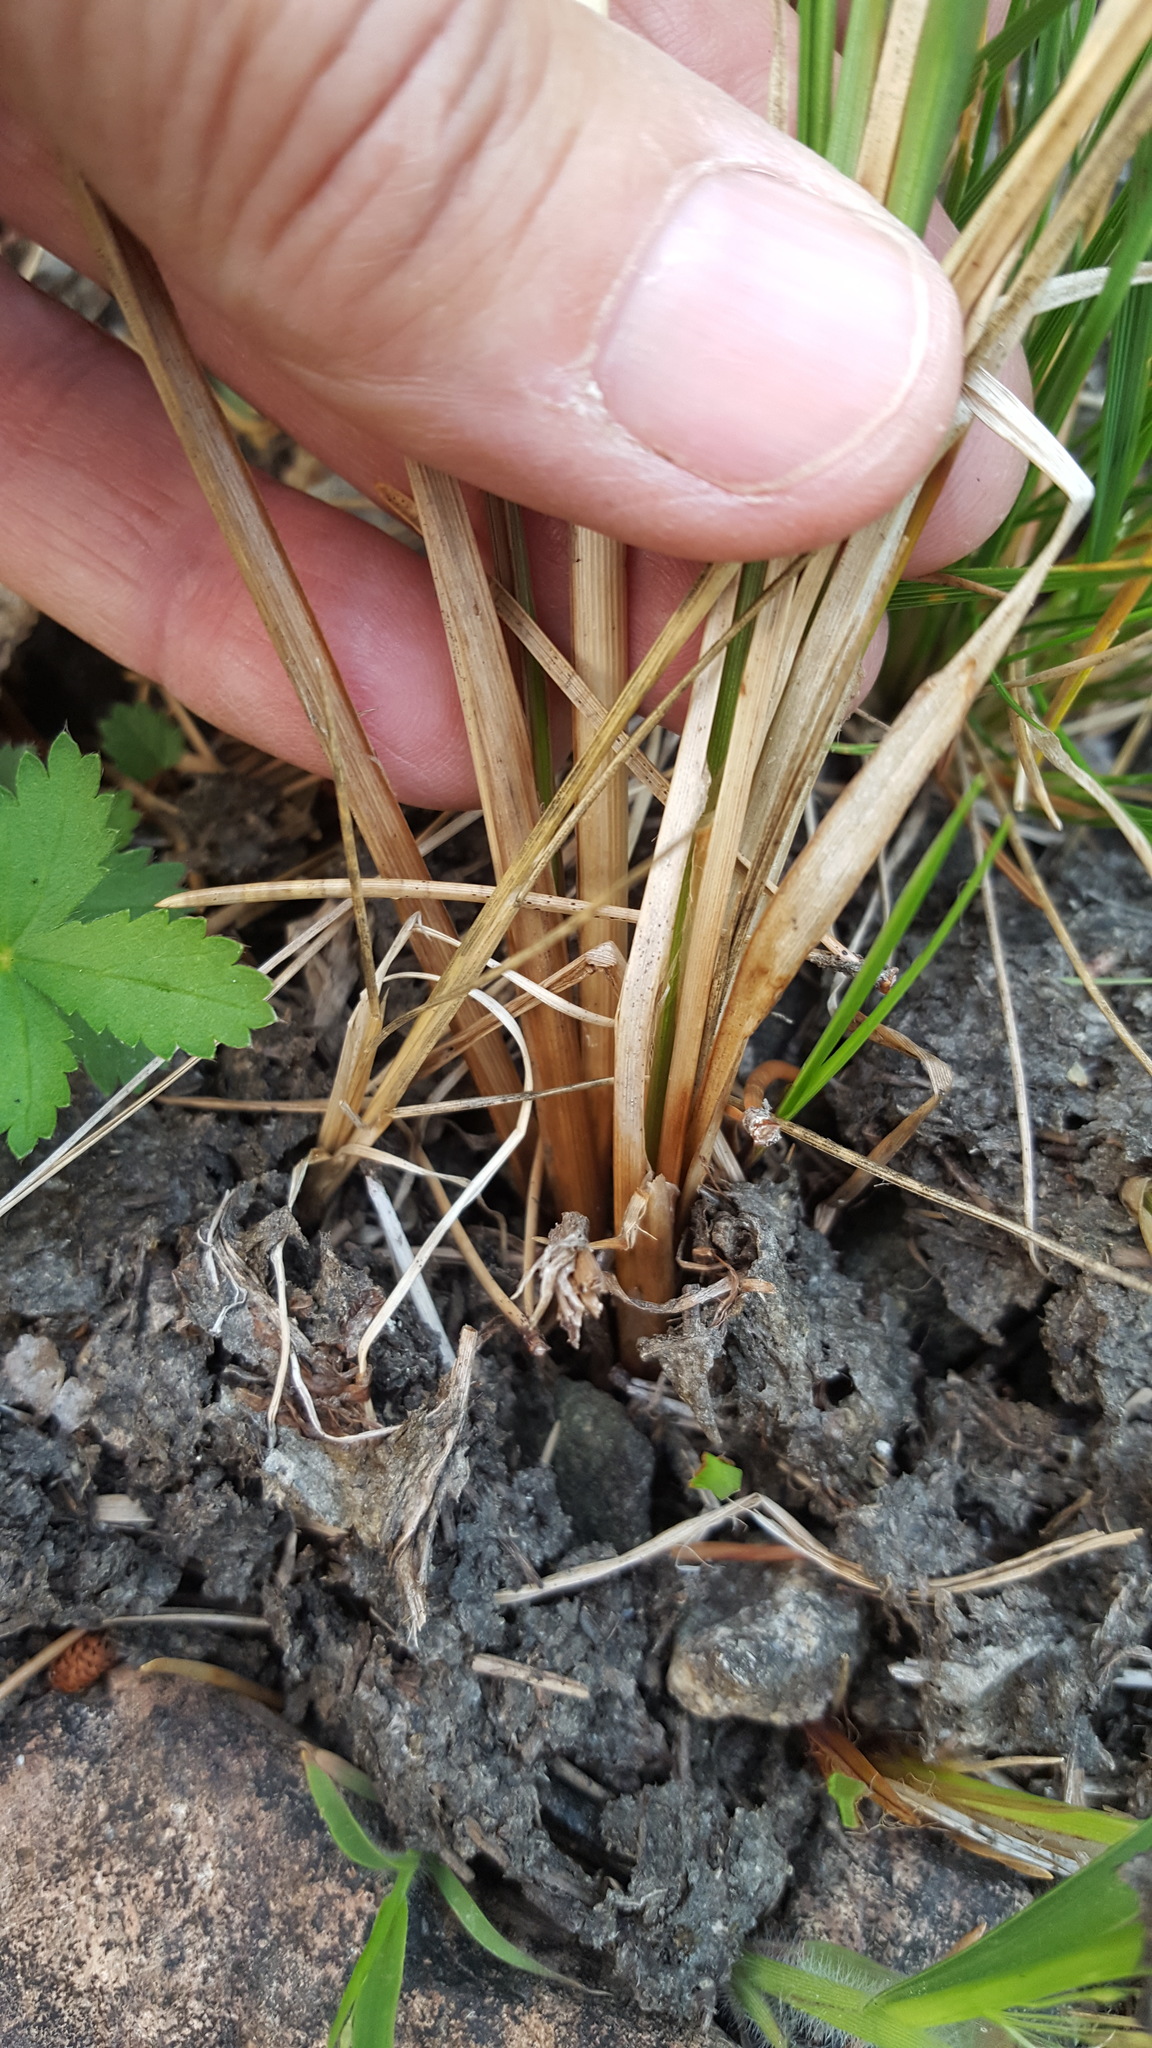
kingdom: Plantae
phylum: Tracheophyta
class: Liliopsida
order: Poales
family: Cyperaceae
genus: Carex
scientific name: Carex pellita
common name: Woolly sedge
